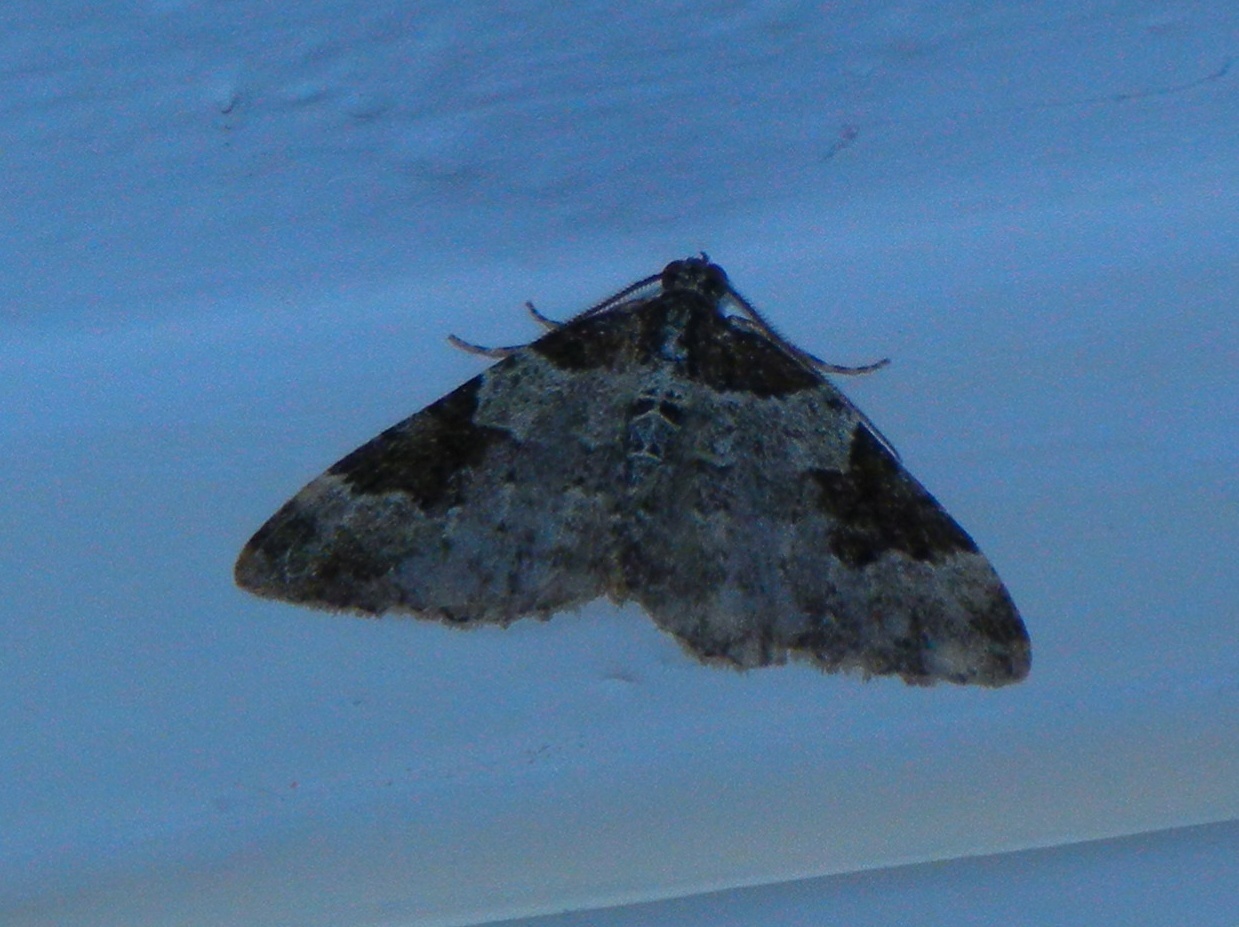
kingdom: Animalia
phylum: Arthropoda
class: Insecta
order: Lepidoptera
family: Geometridae
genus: Xanthorhoe
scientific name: Xanthorhoe fluctuata
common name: Garden carpet
